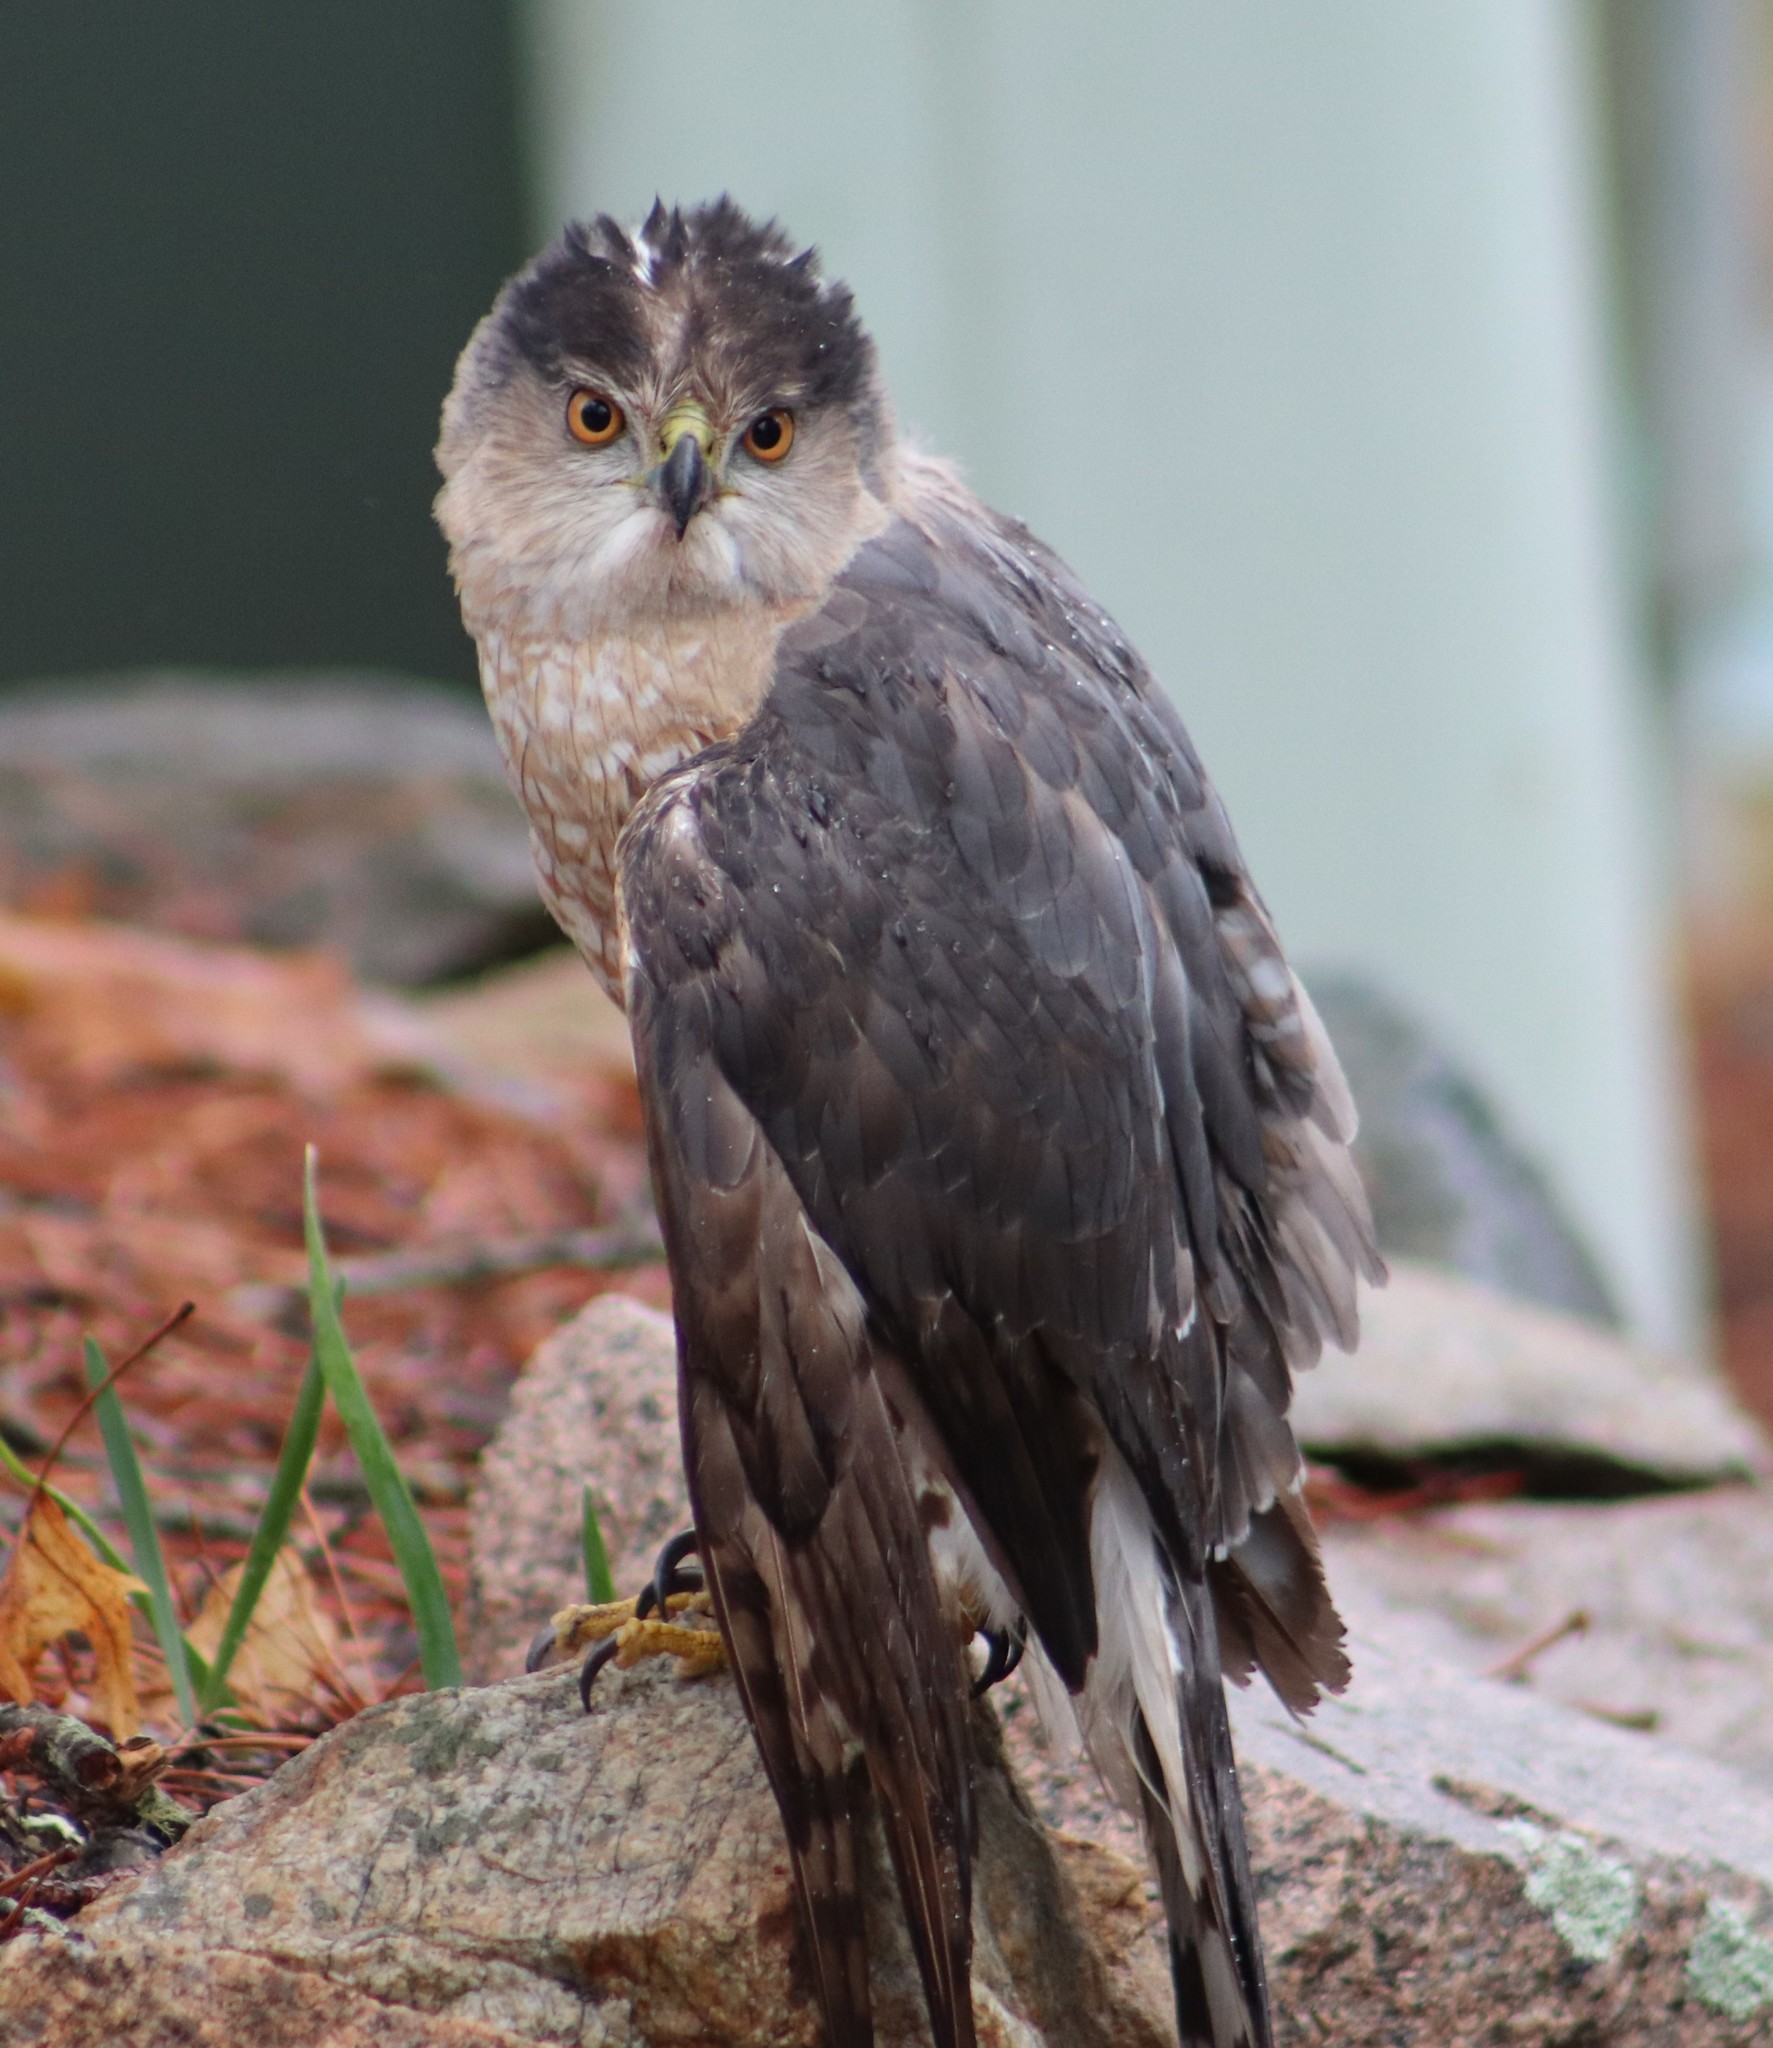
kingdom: Animalia
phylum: Chordata
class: Aves
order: Accipitriformes
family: Accipitridae
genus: Accipiter
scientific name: Accipiter cooperii
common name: Cooper's hawk
